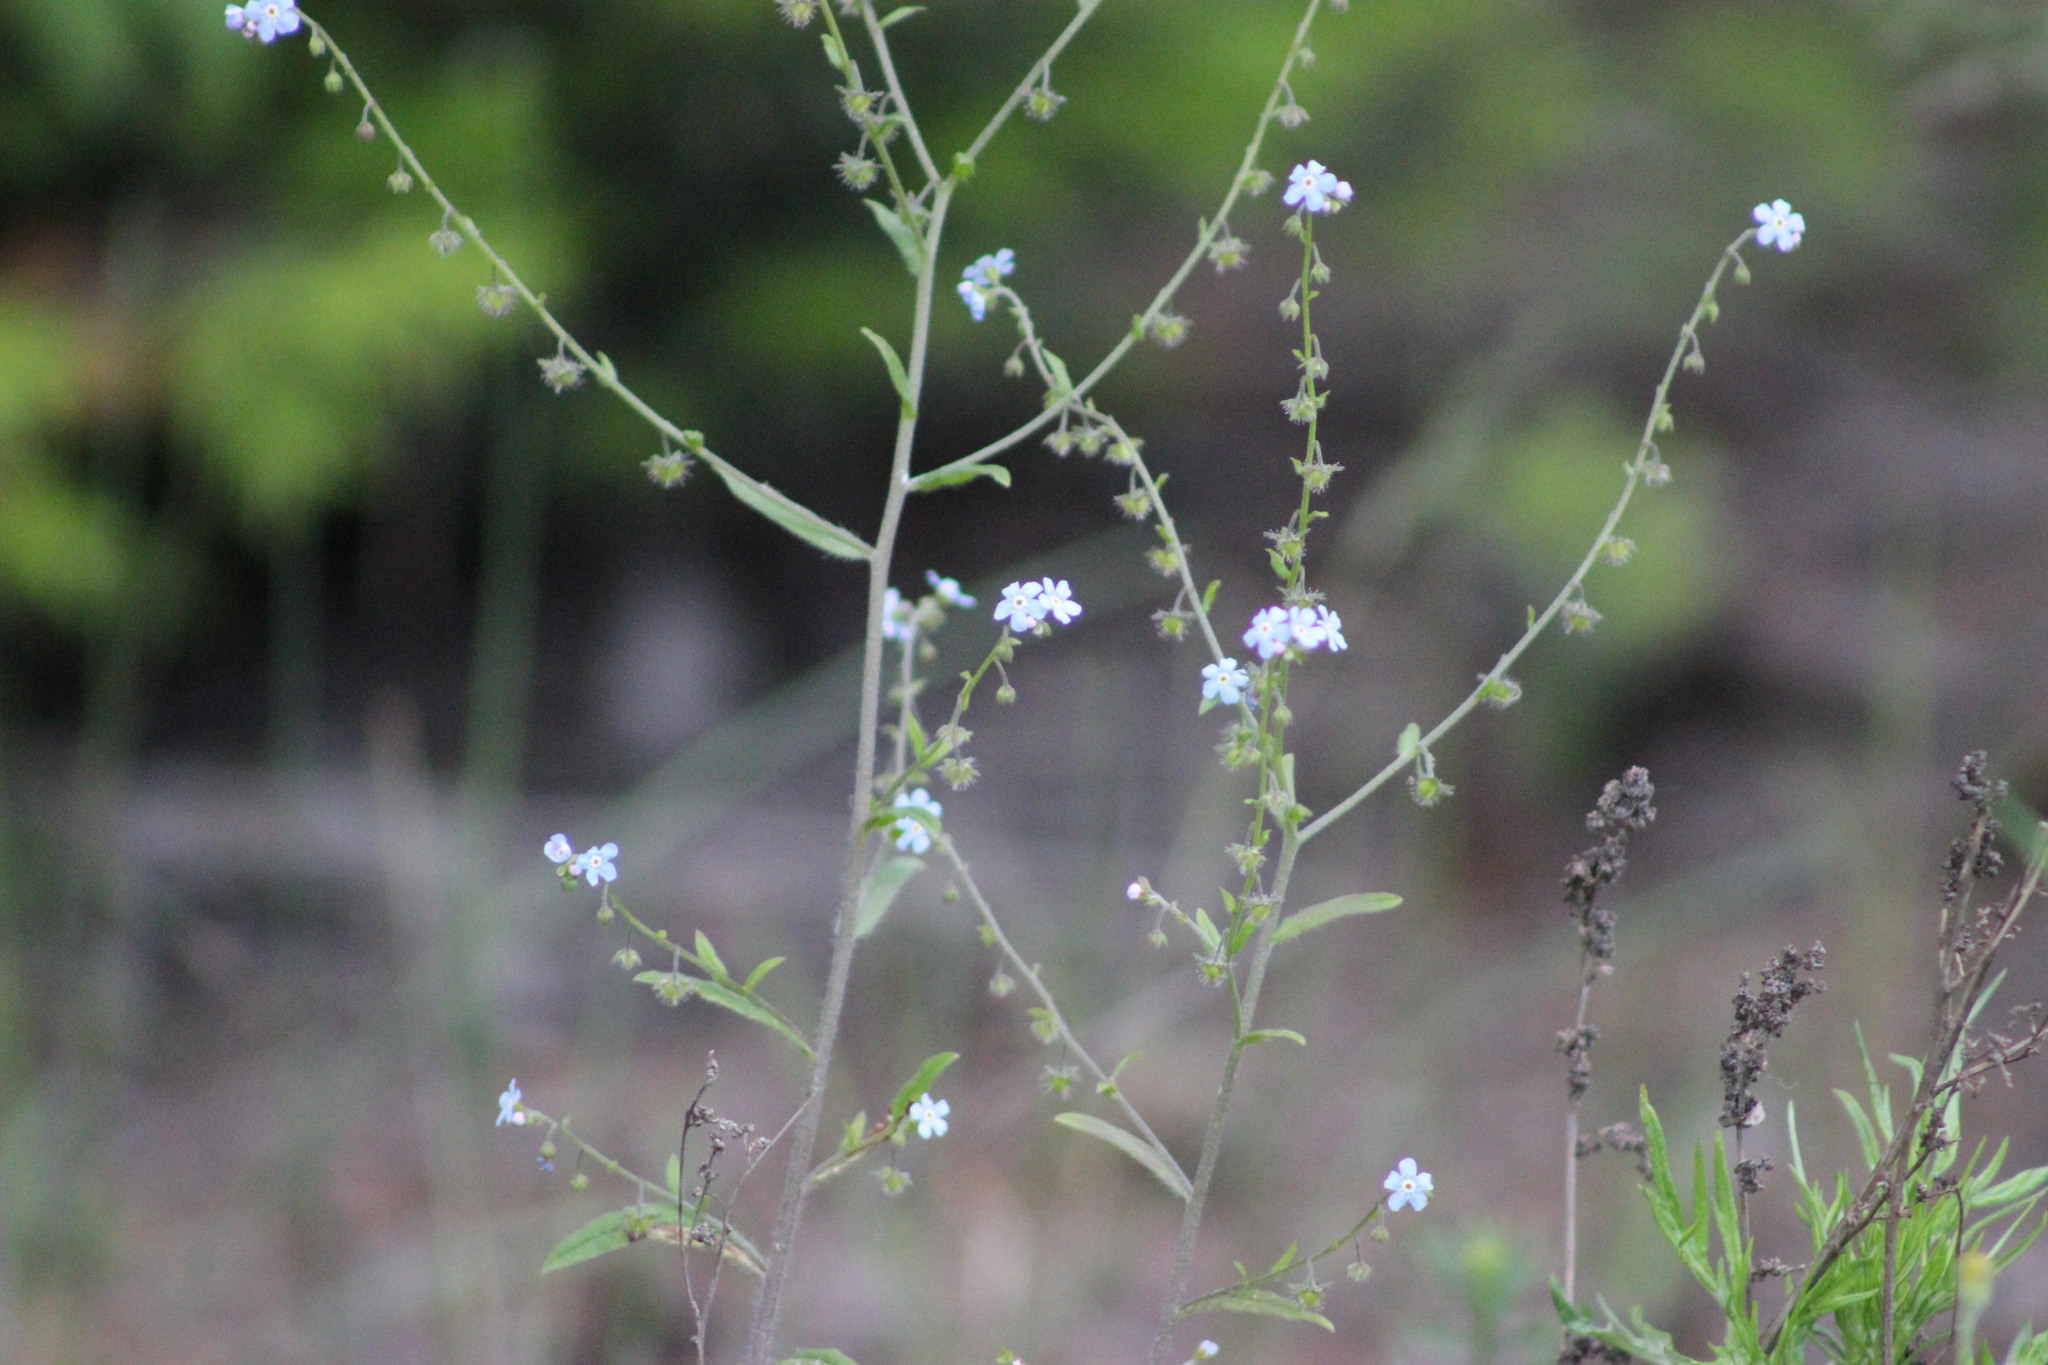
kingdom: Plantae
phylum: Tracheophyta
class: Magnoliopsida
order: Boraginales
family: Boraginaceae
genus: Hackelia
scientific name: Hackelia deflexa
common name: Nodding stickseed
